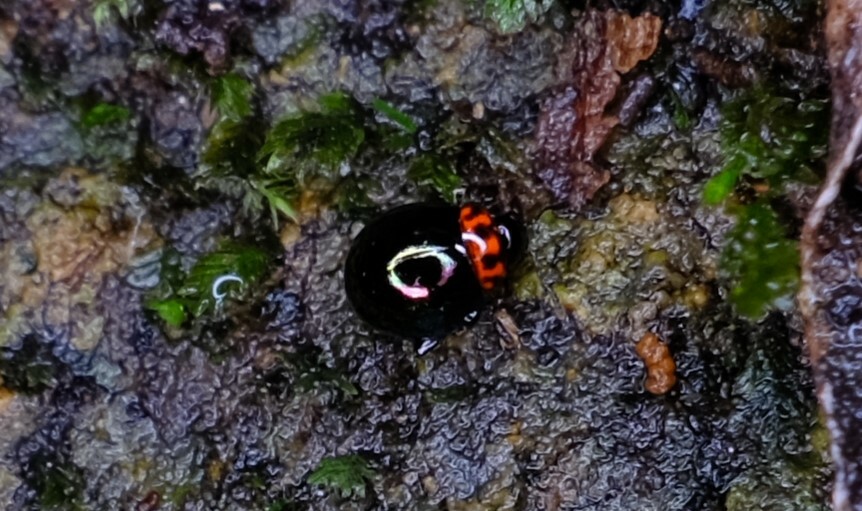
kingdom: Animalia
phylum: Arthropoda
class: Insecta
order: Coleoptera
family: Chrysomelidae
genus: Ivalia
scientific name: Ivalia
